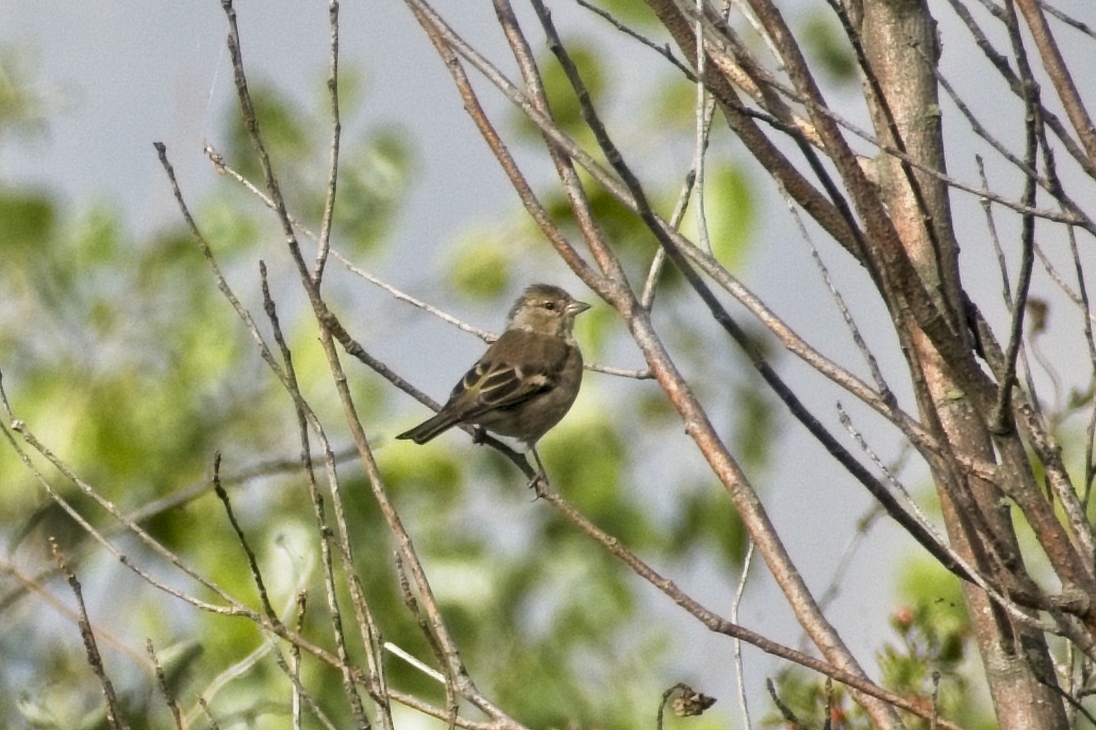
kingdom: Animalia
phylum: Chordata
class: Aves
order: Passeriformes
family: Fringillidae
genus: Fringilla
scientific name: Fringilla coelebs
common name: Common chaffinch
